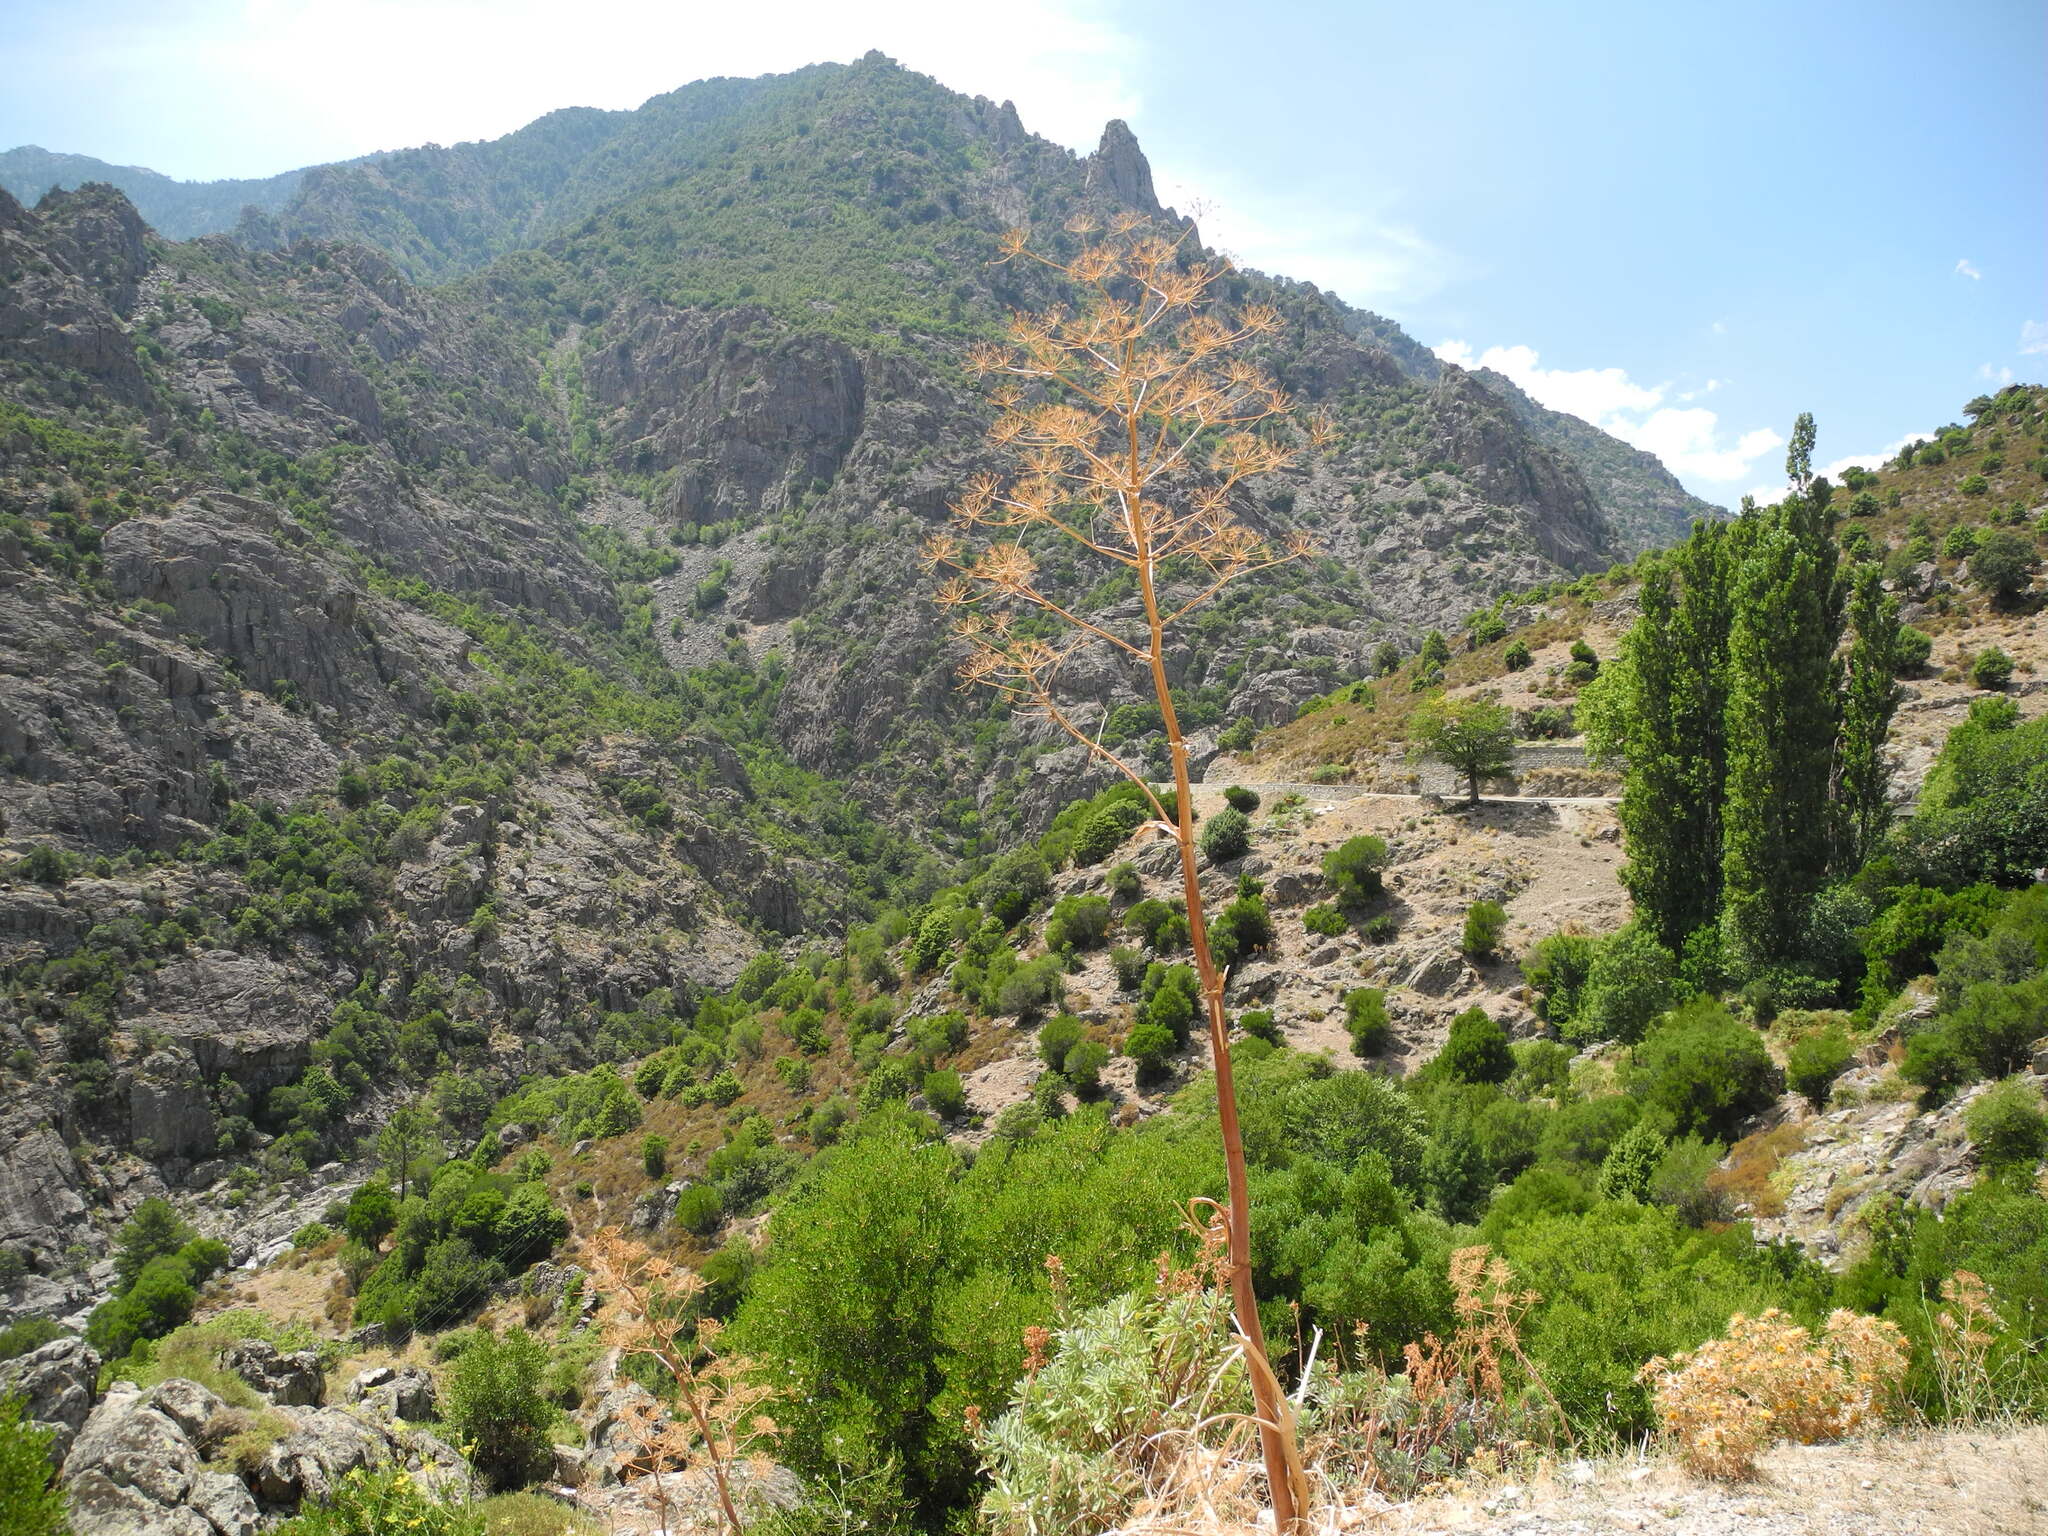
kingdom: Plantae
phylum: Tracheophyta
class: Magnoliopsida
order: Apiales
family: Apiaceae
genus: Ferula
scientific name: Ferula communis
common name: Giant fennel
